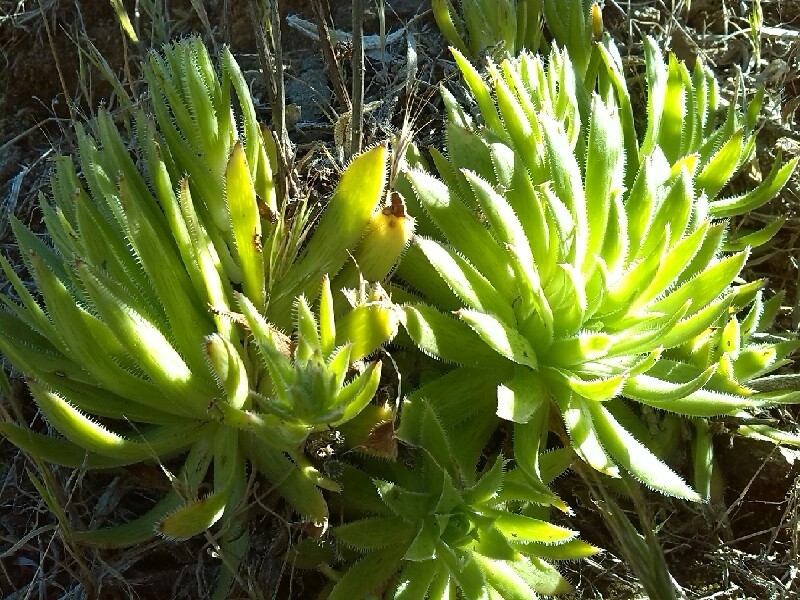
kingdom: Plantae
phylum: Tracheophyta
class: Magnoliopsida
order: Saxifragales
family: Crassulaceae
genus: Aeonium
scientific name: Aeonium simsii
